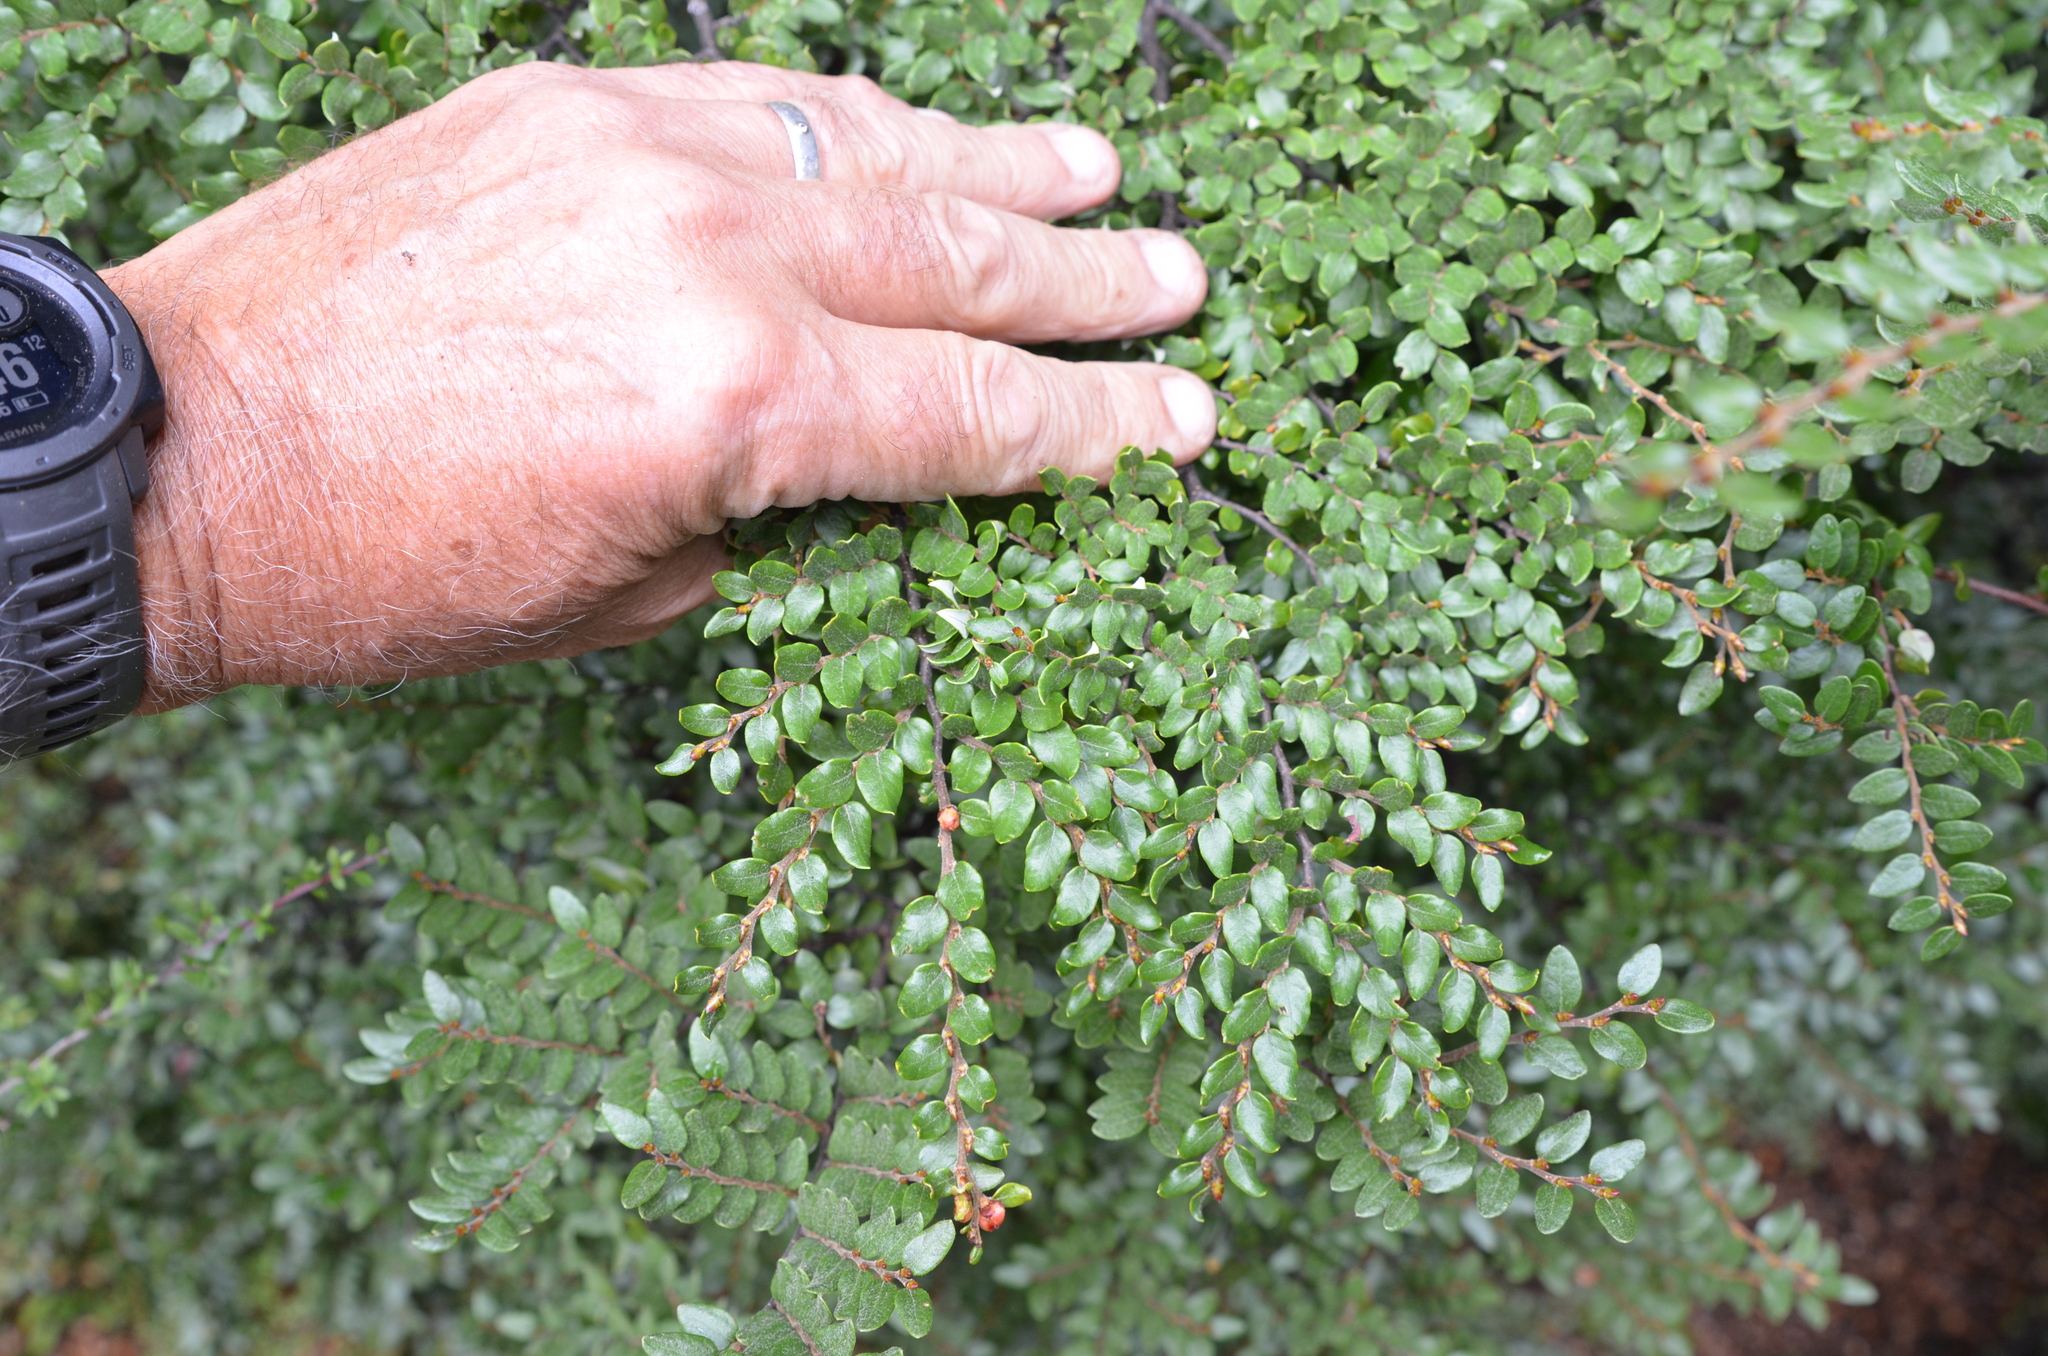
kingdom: Plantae
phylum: Tracheophyta
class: Magnoliopsida
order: Fagales
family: Nothofagaceae
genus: Nothofagus
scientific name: Nothofagus cliffortioides
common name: Mountain beech
